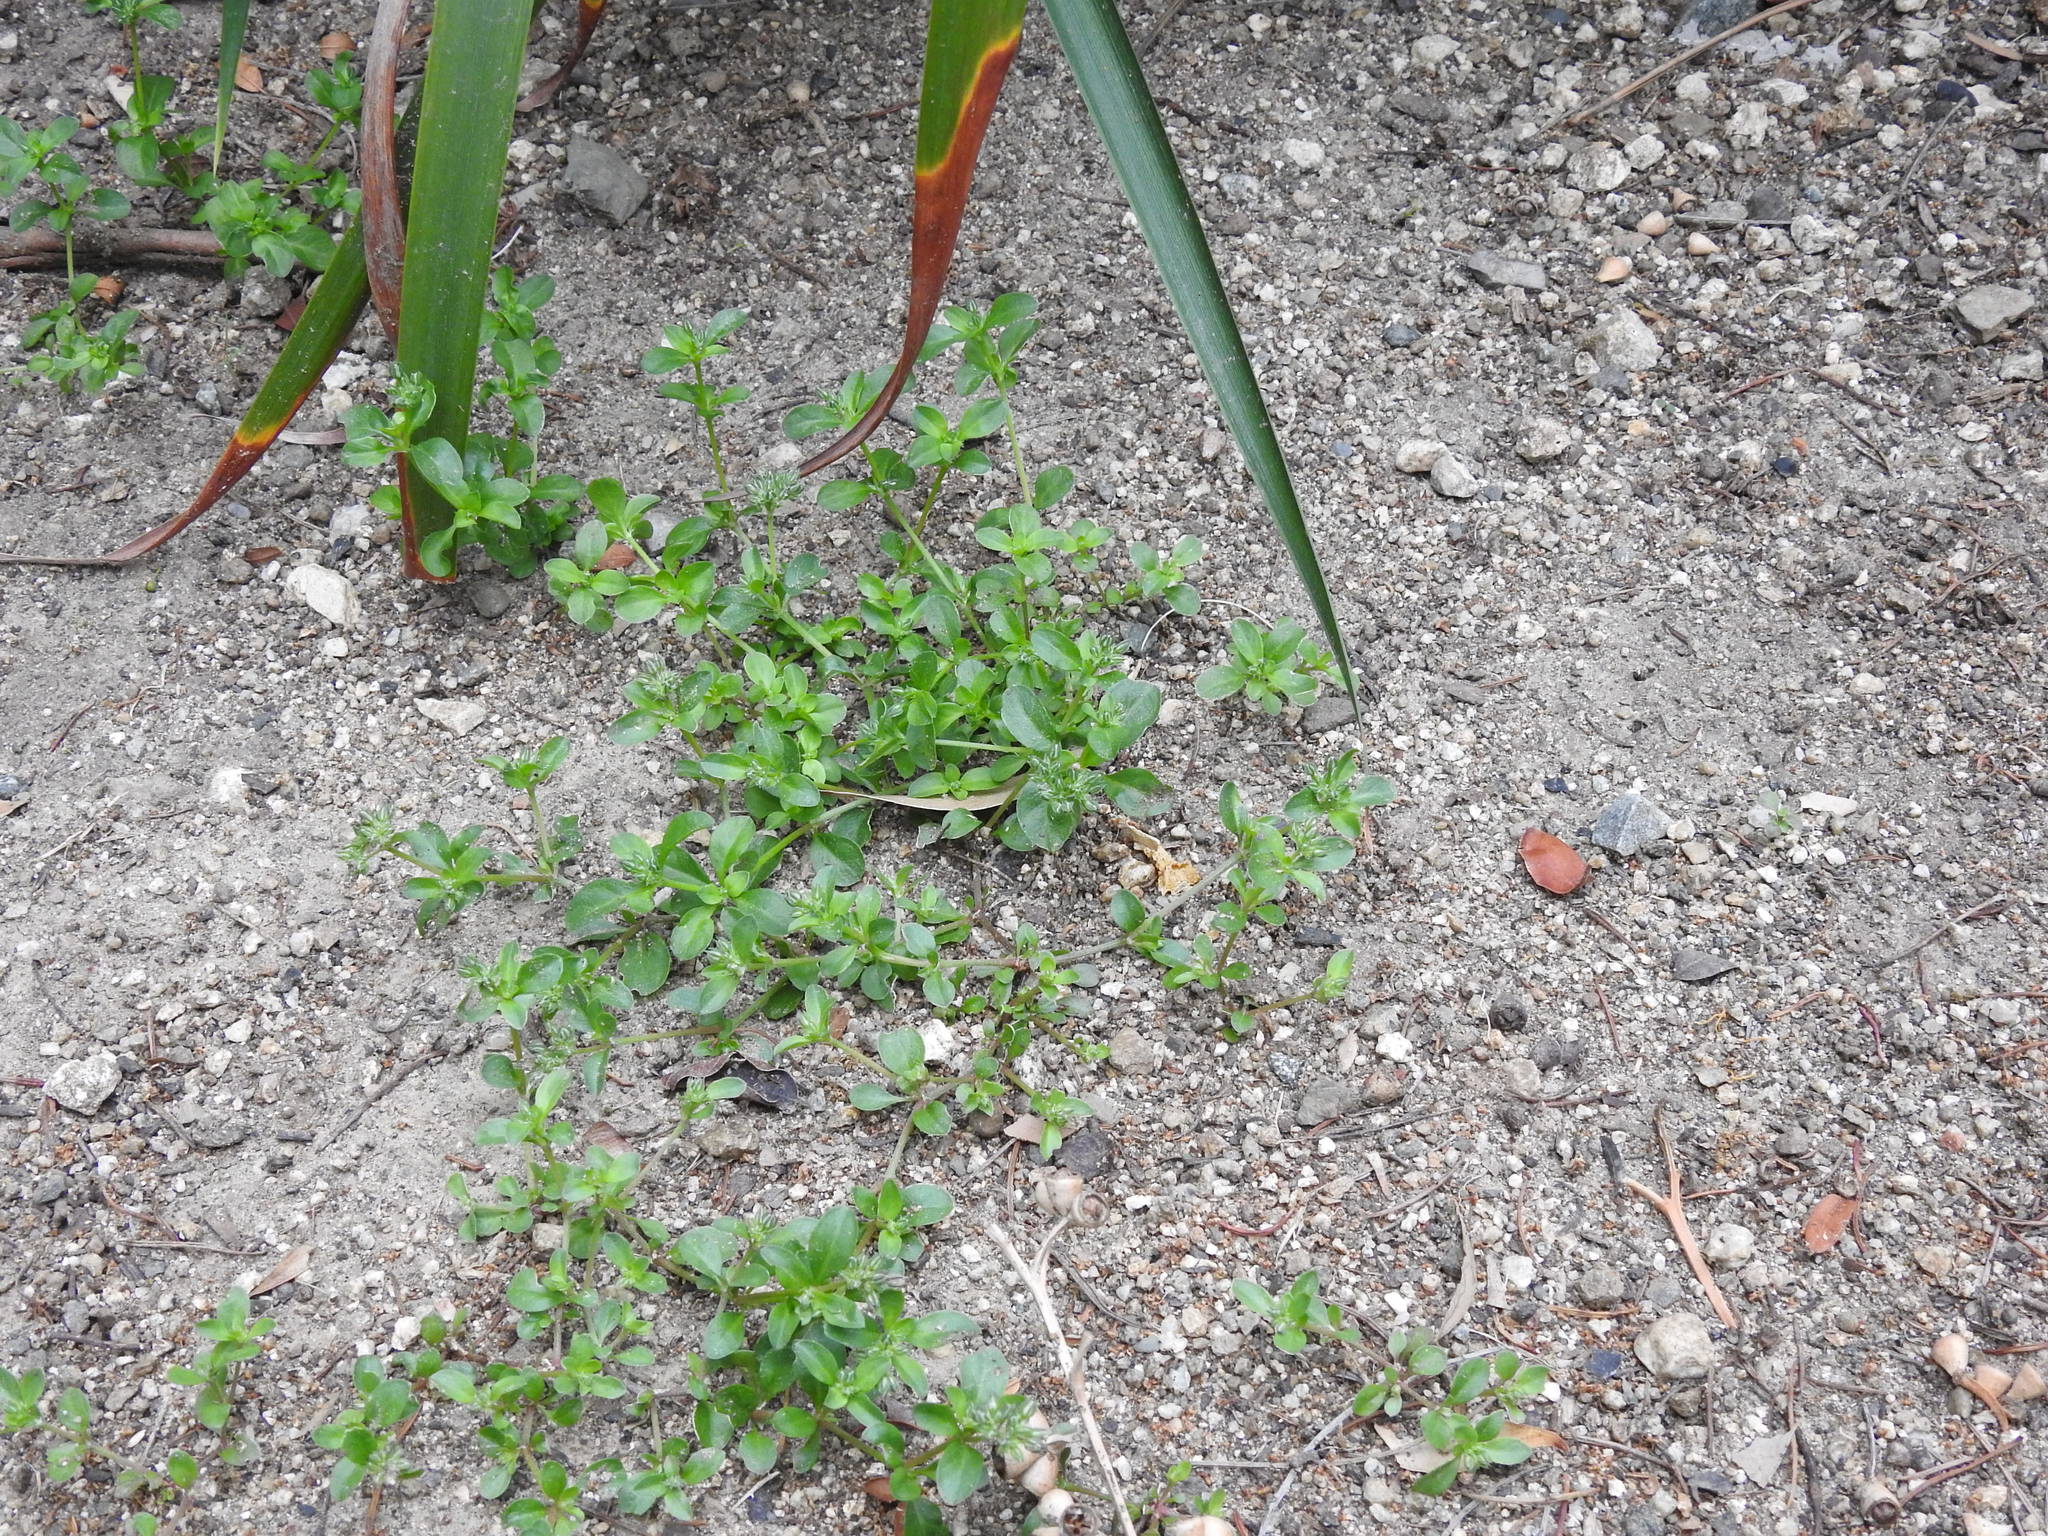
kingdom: Plantae
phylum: Tracheophyta
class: Magnoliopsida
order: Caryophyllales
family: Caryophyllaceae
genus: Polycarpon
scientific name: Polycarpon tetraphyllum
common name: Four-leaved all-seed
